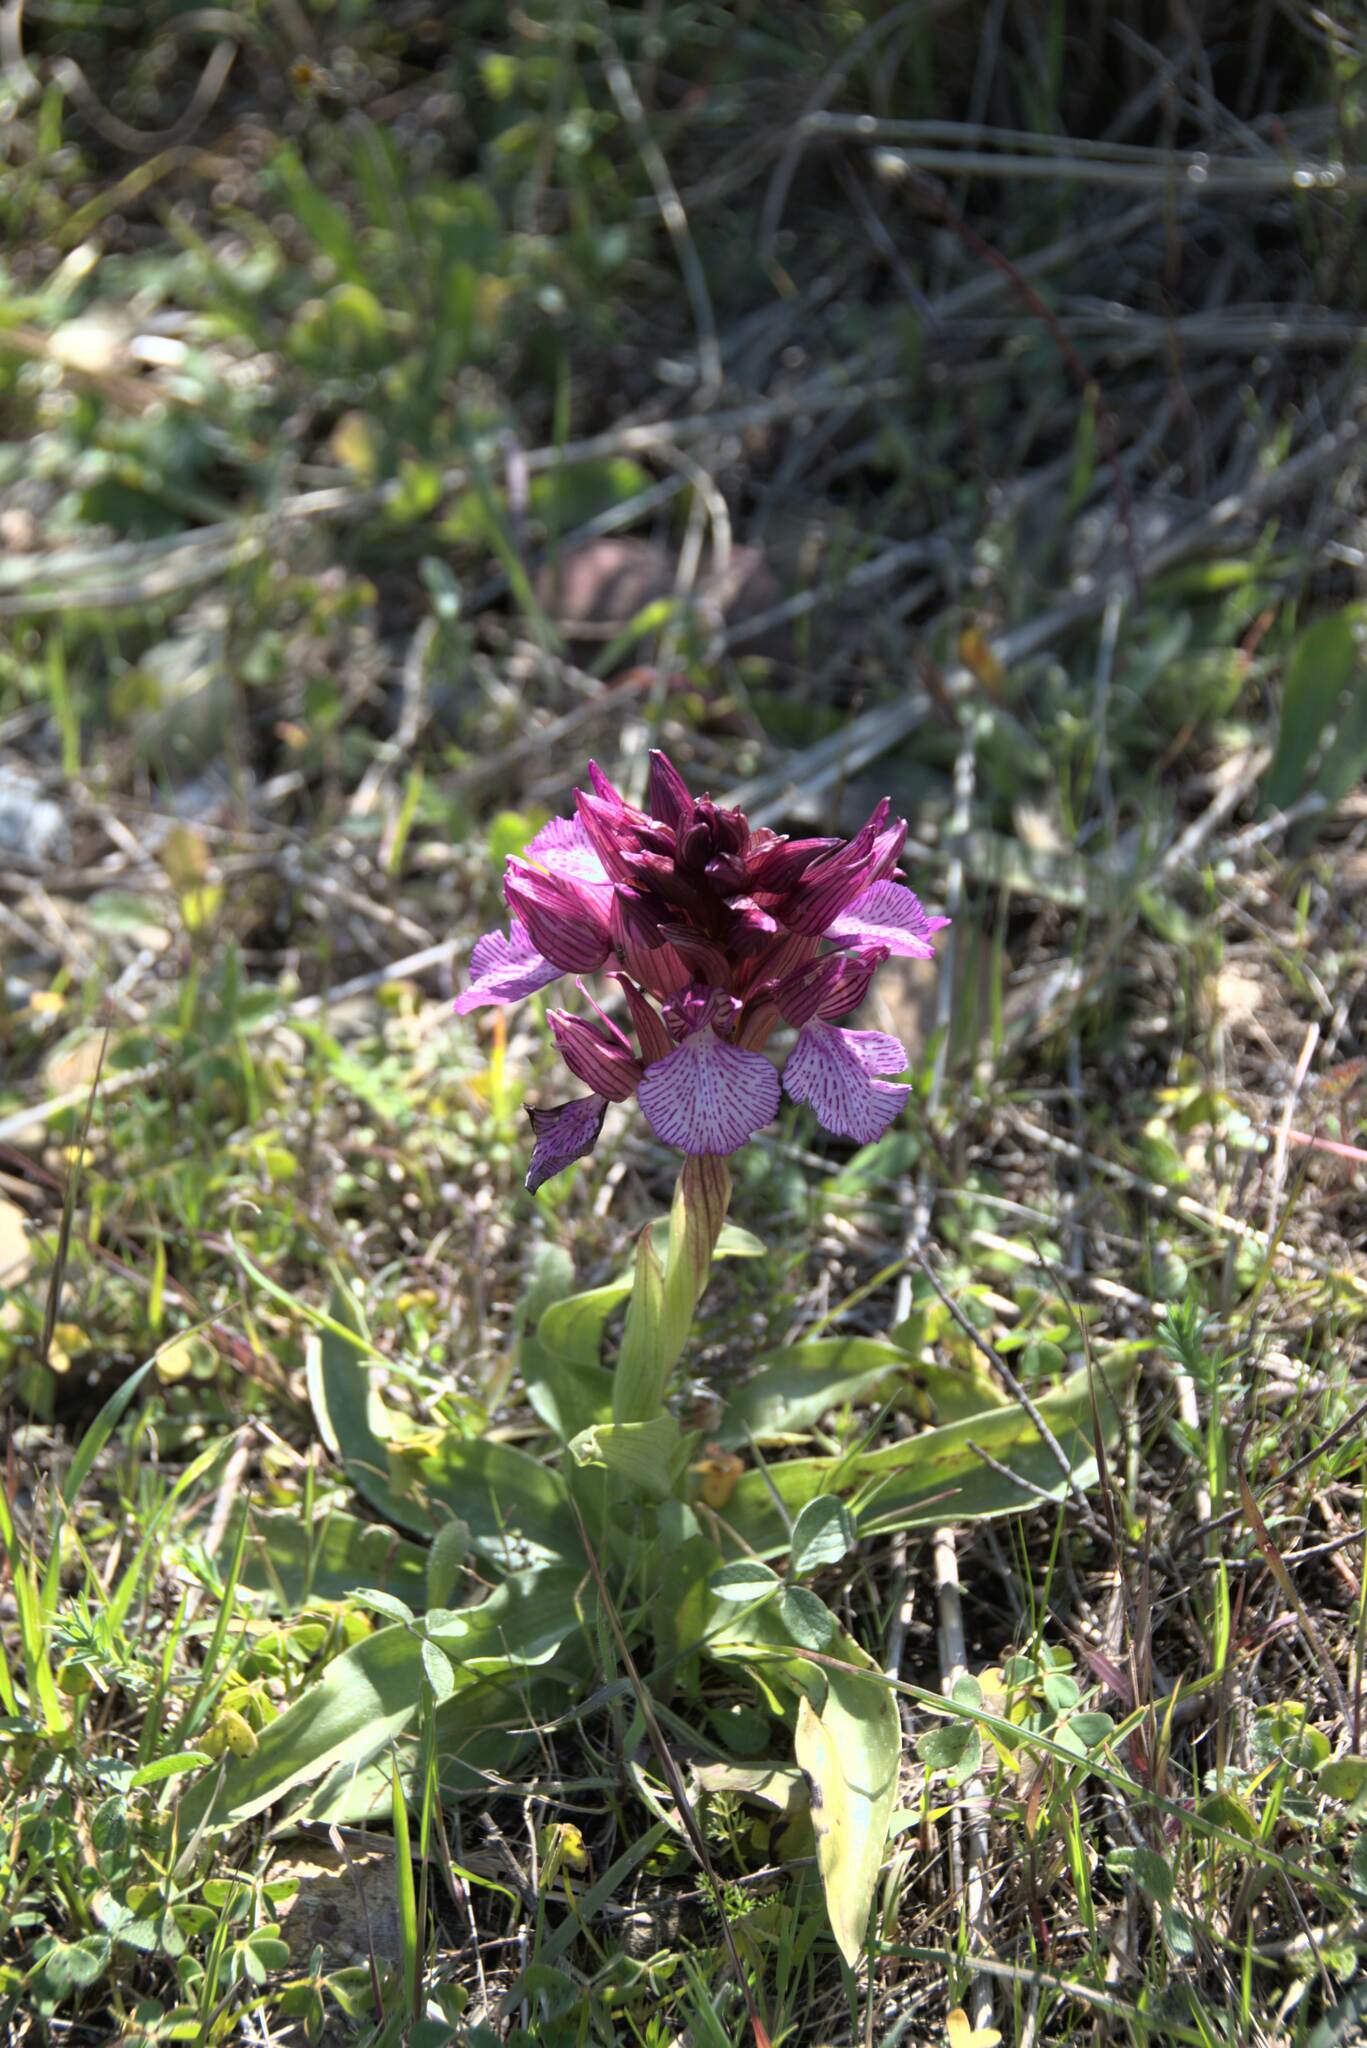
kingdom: Plantae
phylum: Tracheophyta
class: Liliopsida
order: Asparagales
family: Orchidaceae
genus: Anacamptis
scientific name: Anacamptis papilionacea
